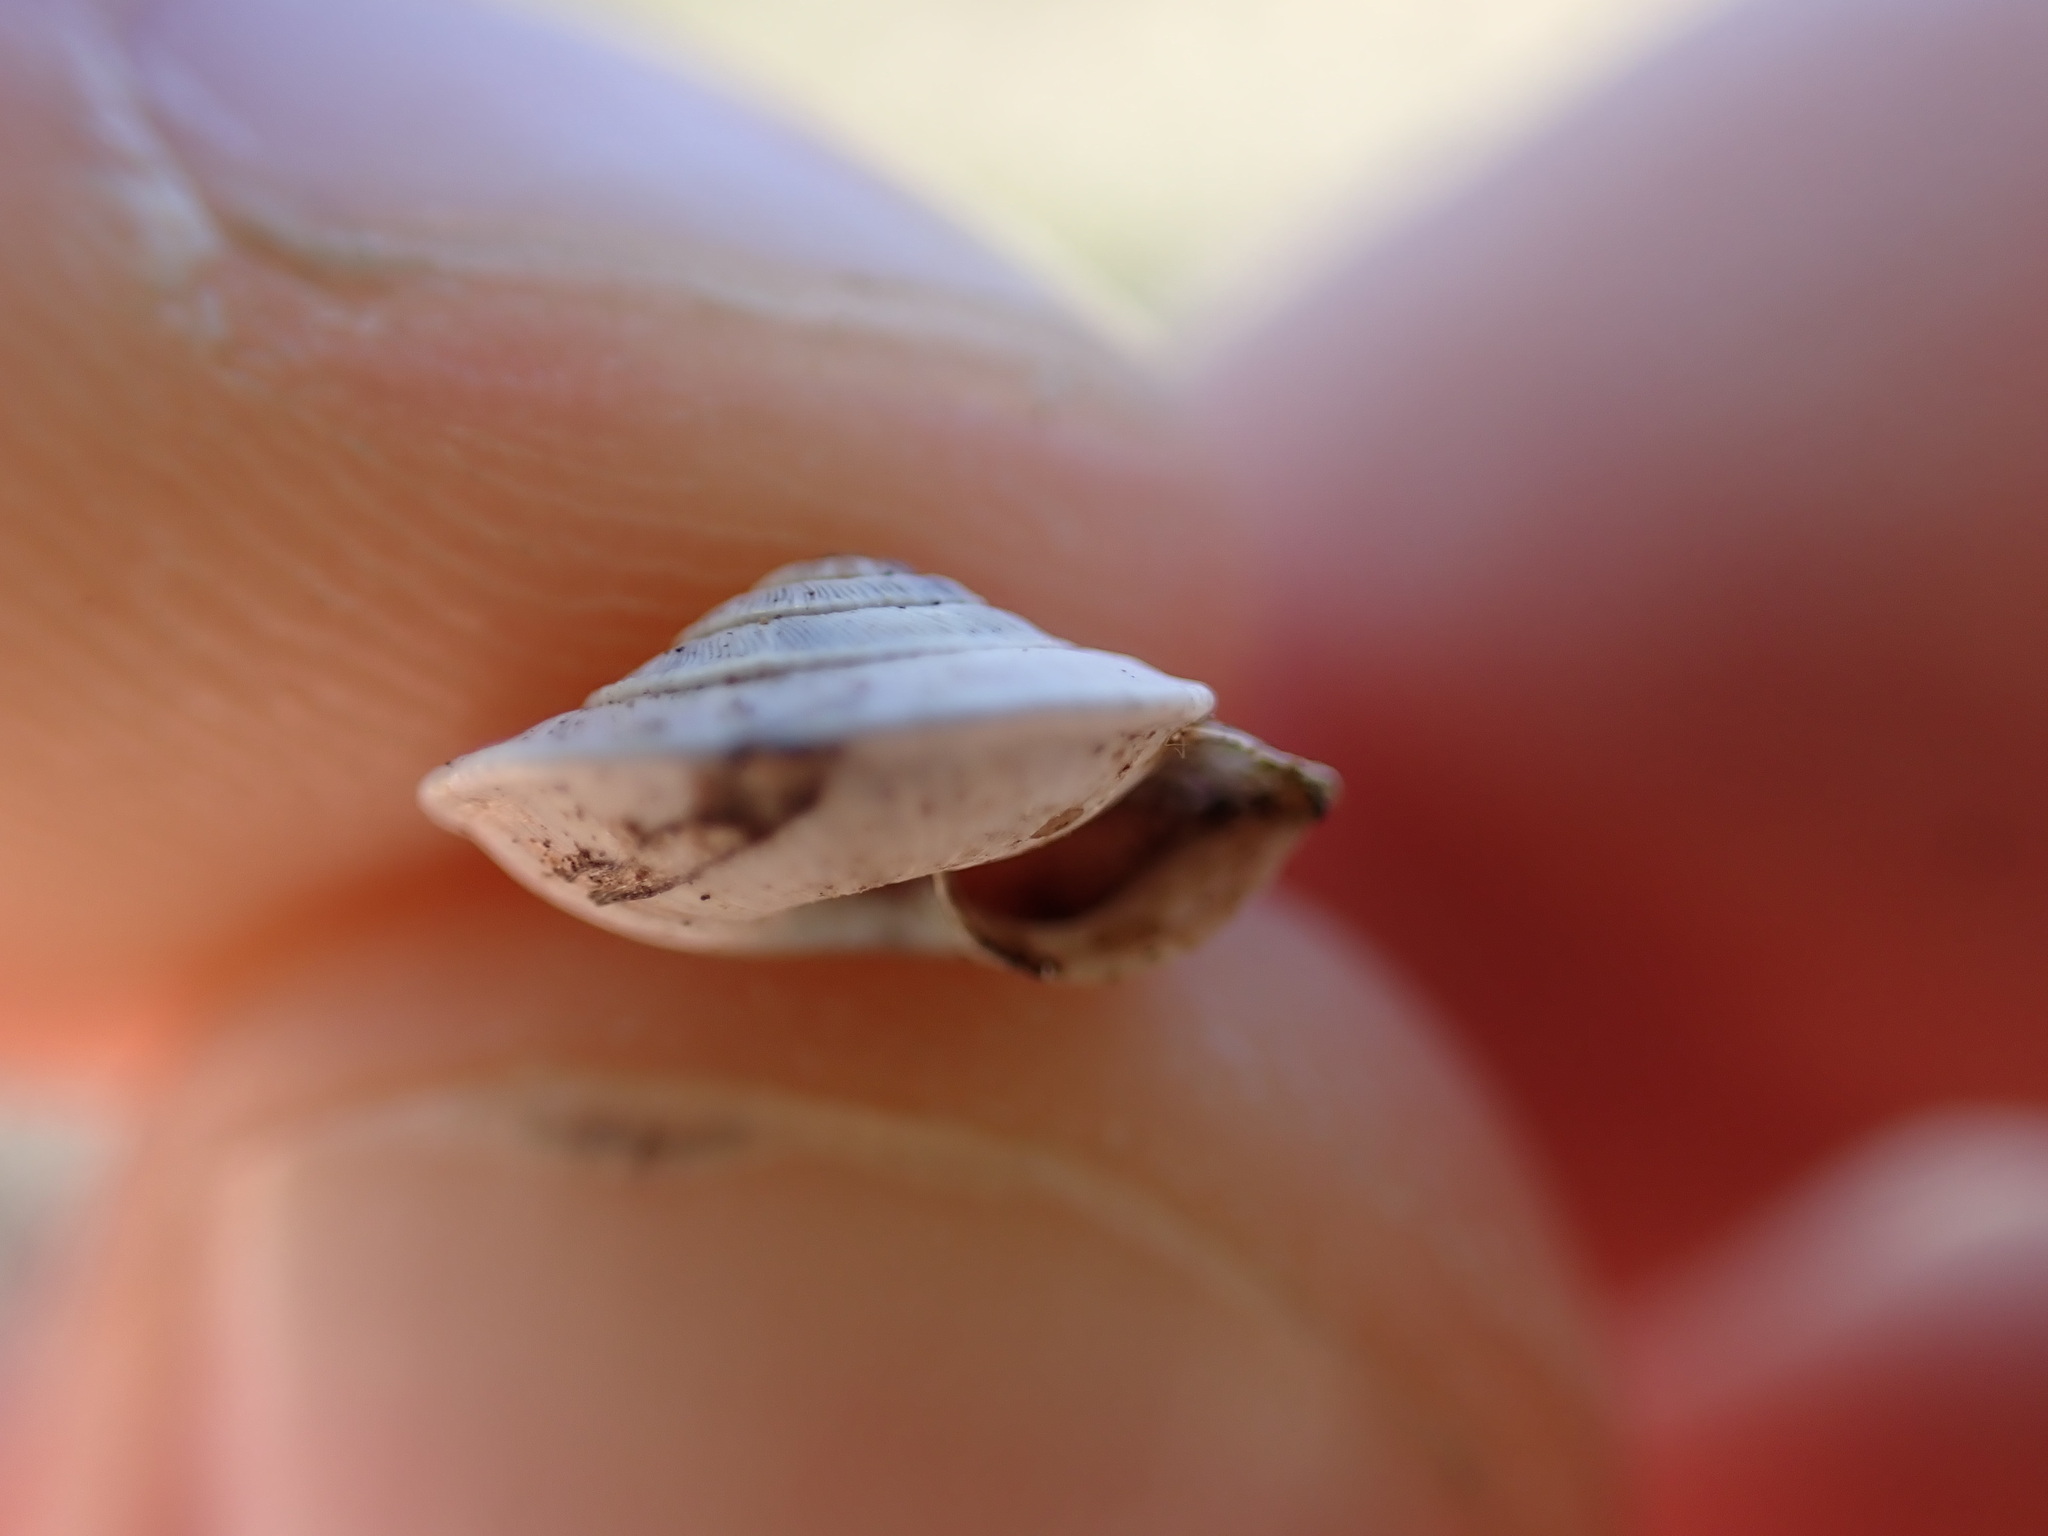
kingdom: Animalia
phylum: Mollusca
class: Gastropoda
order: Stylommatophora
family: Geomitridae
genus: Trochoidea
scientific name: Trochoidea elegans
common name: Elegant helicellid
